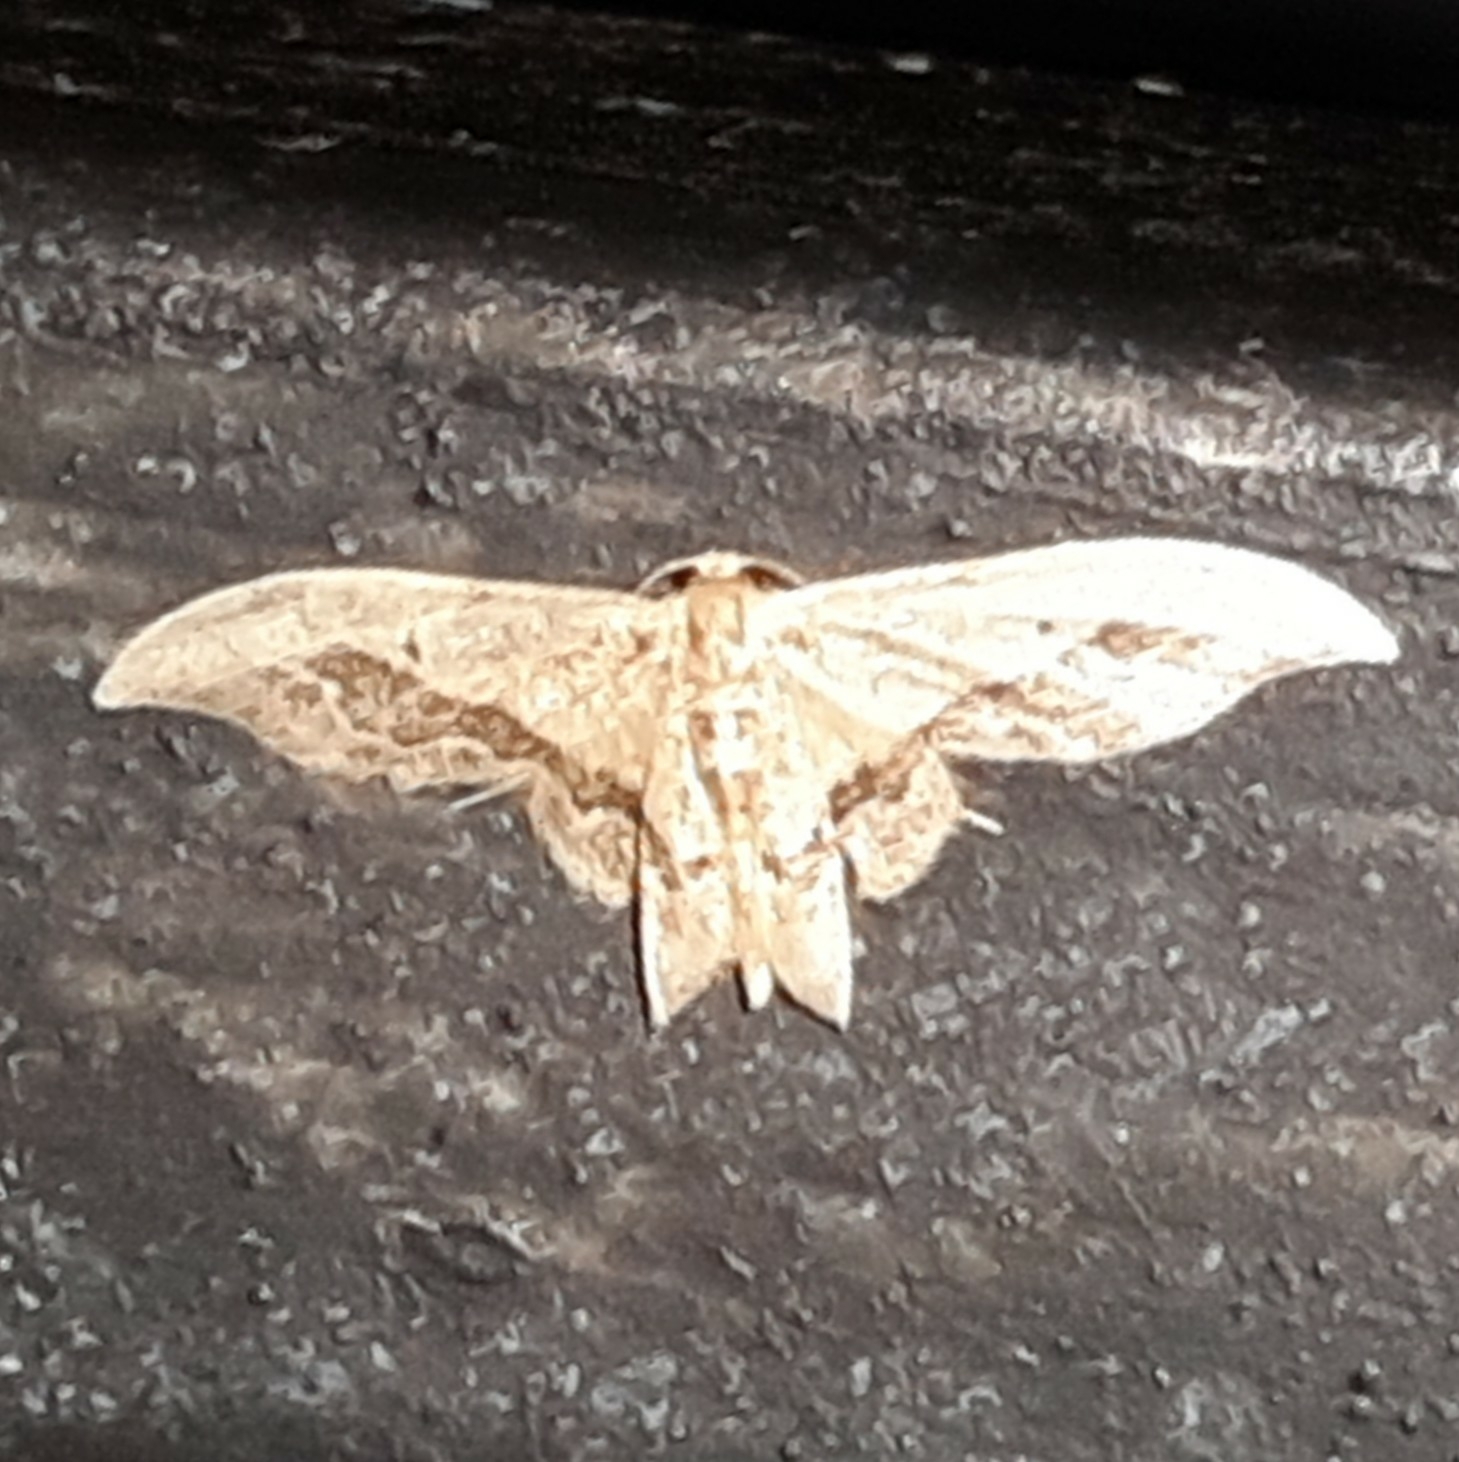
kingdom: Animalia
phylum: Arthropoda
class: Insecta
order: Lepidoptera
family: Geometridae
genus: Idaea
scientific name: Idaea elata
